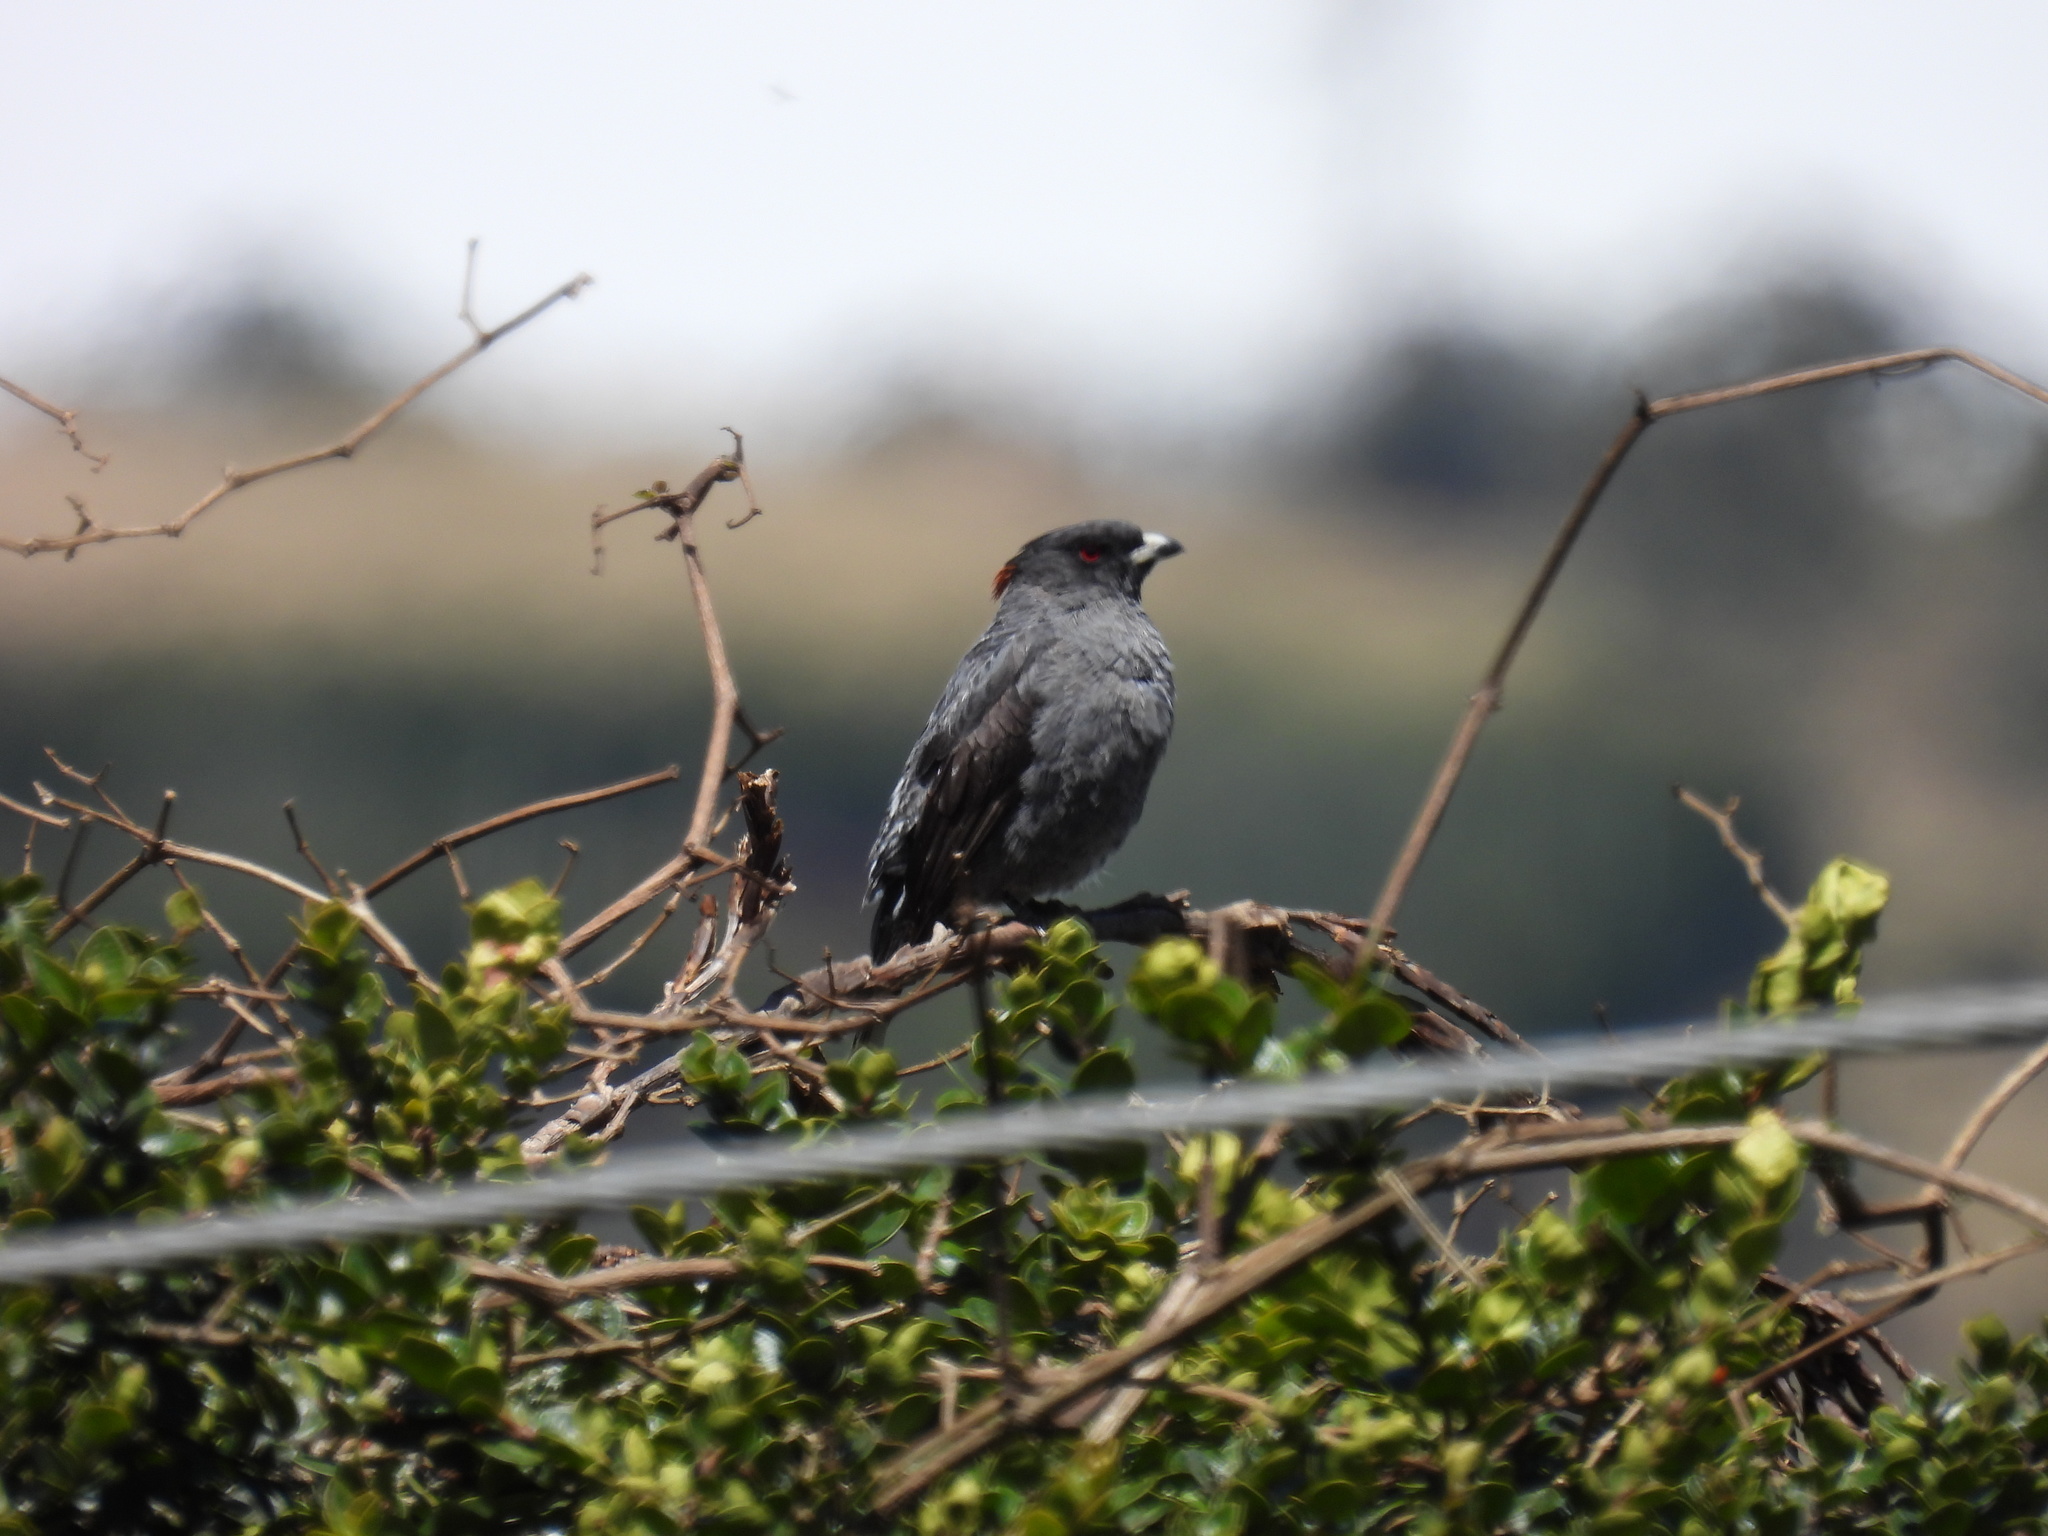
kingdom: Animalia
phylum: Chordata
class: Aves
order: Passeriformes
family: Cotingidae
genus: Ampelion
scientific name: Ampelion rubrocristatus
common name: Red-crested cotinga
